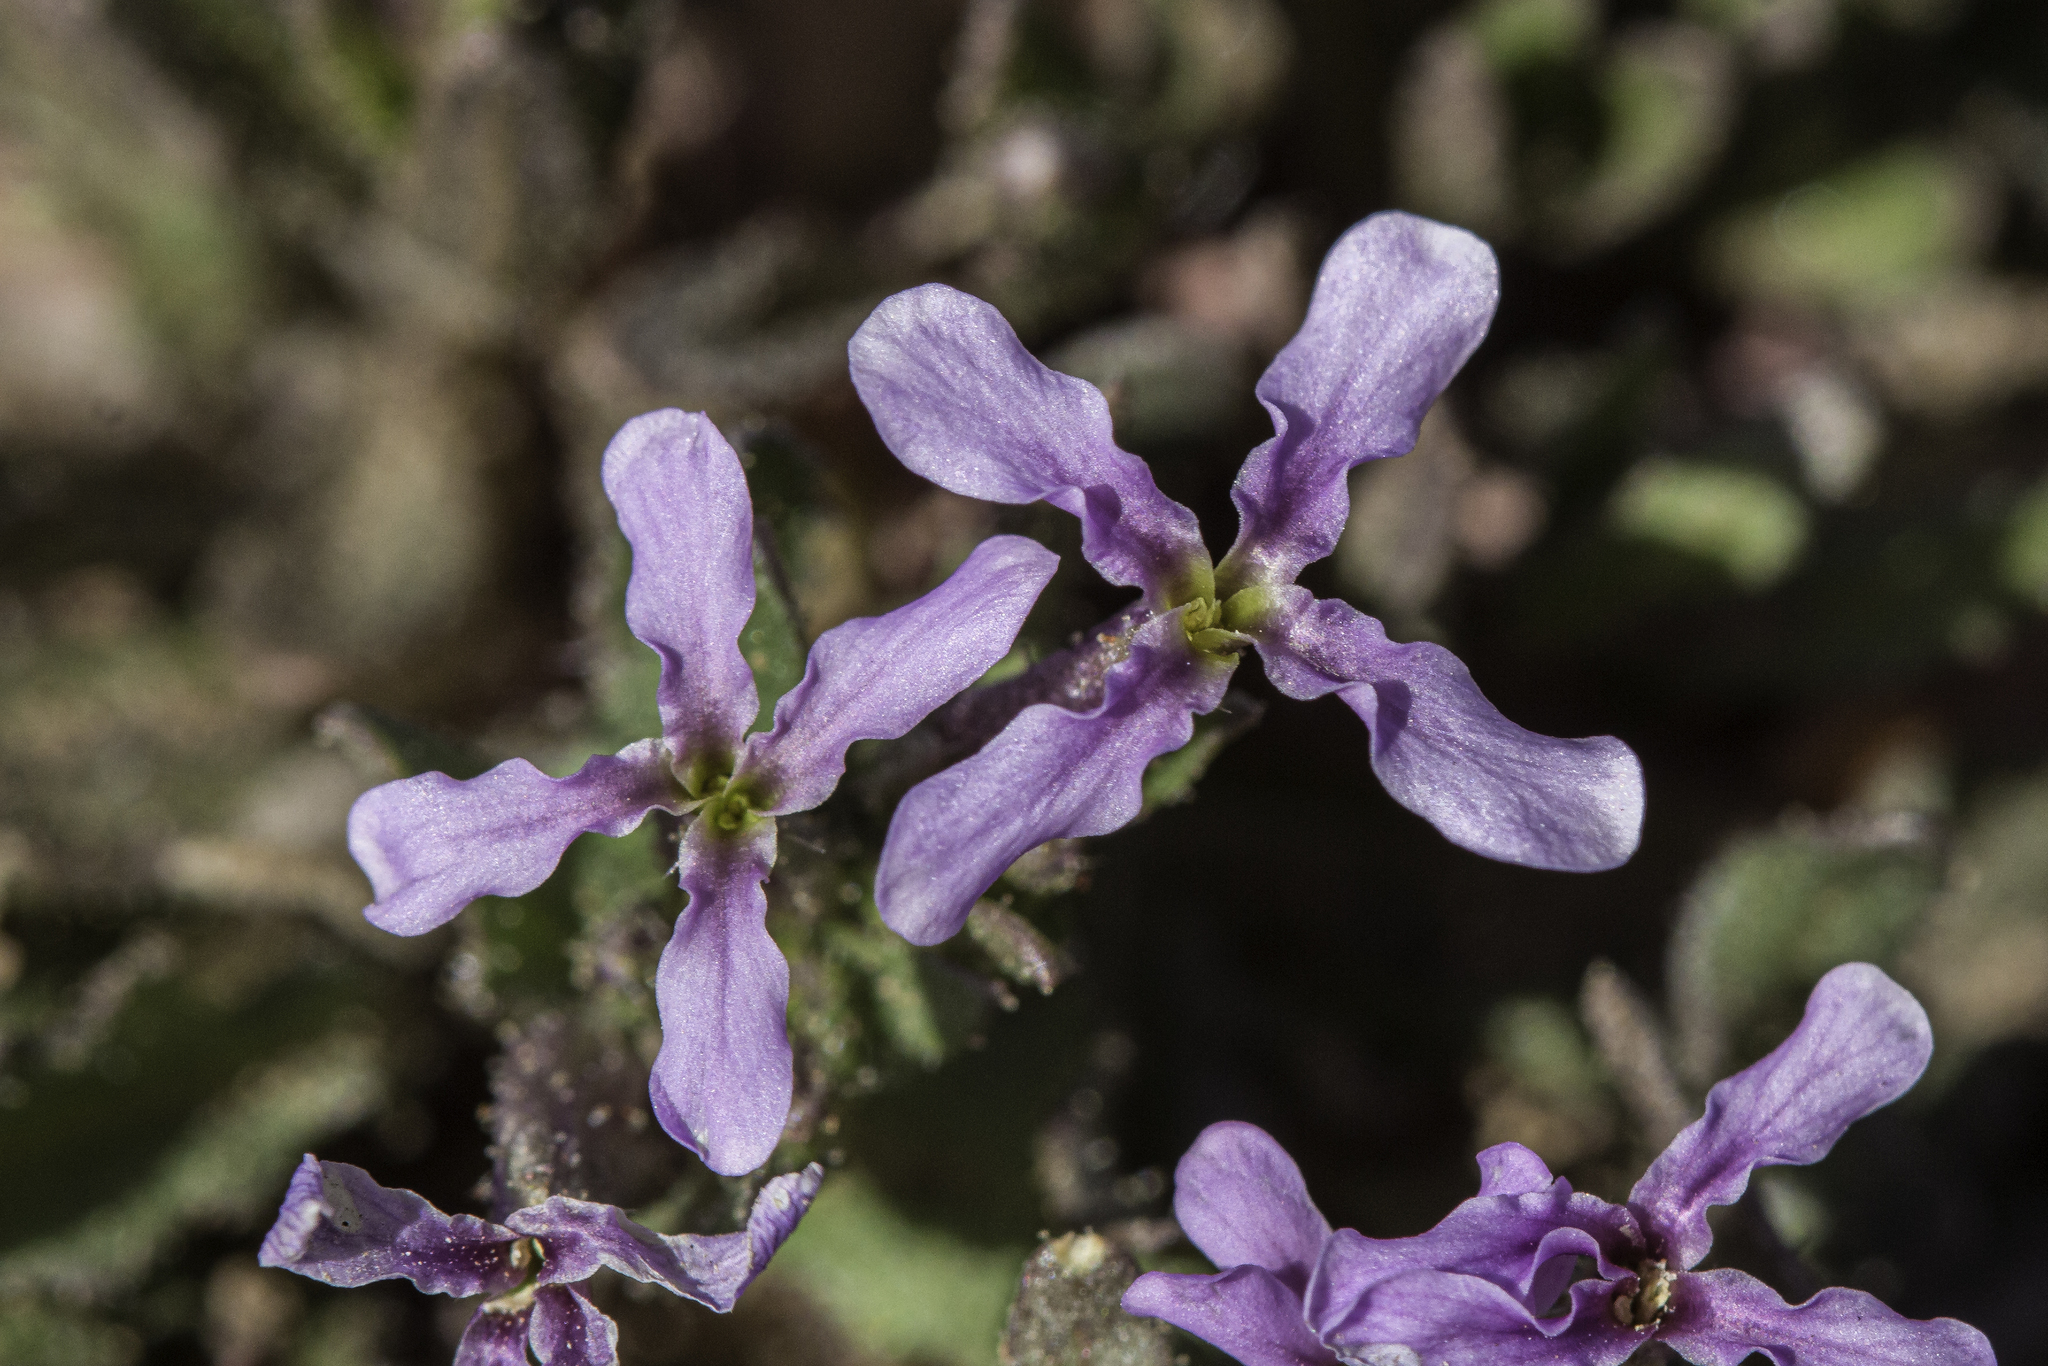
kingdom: Plantae
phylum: Tracheophyta
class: Magnoliopsida
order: Brassicales
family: Brassicaceae
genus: Chorispora
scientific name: Chorispora tenella
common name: Crossflower
